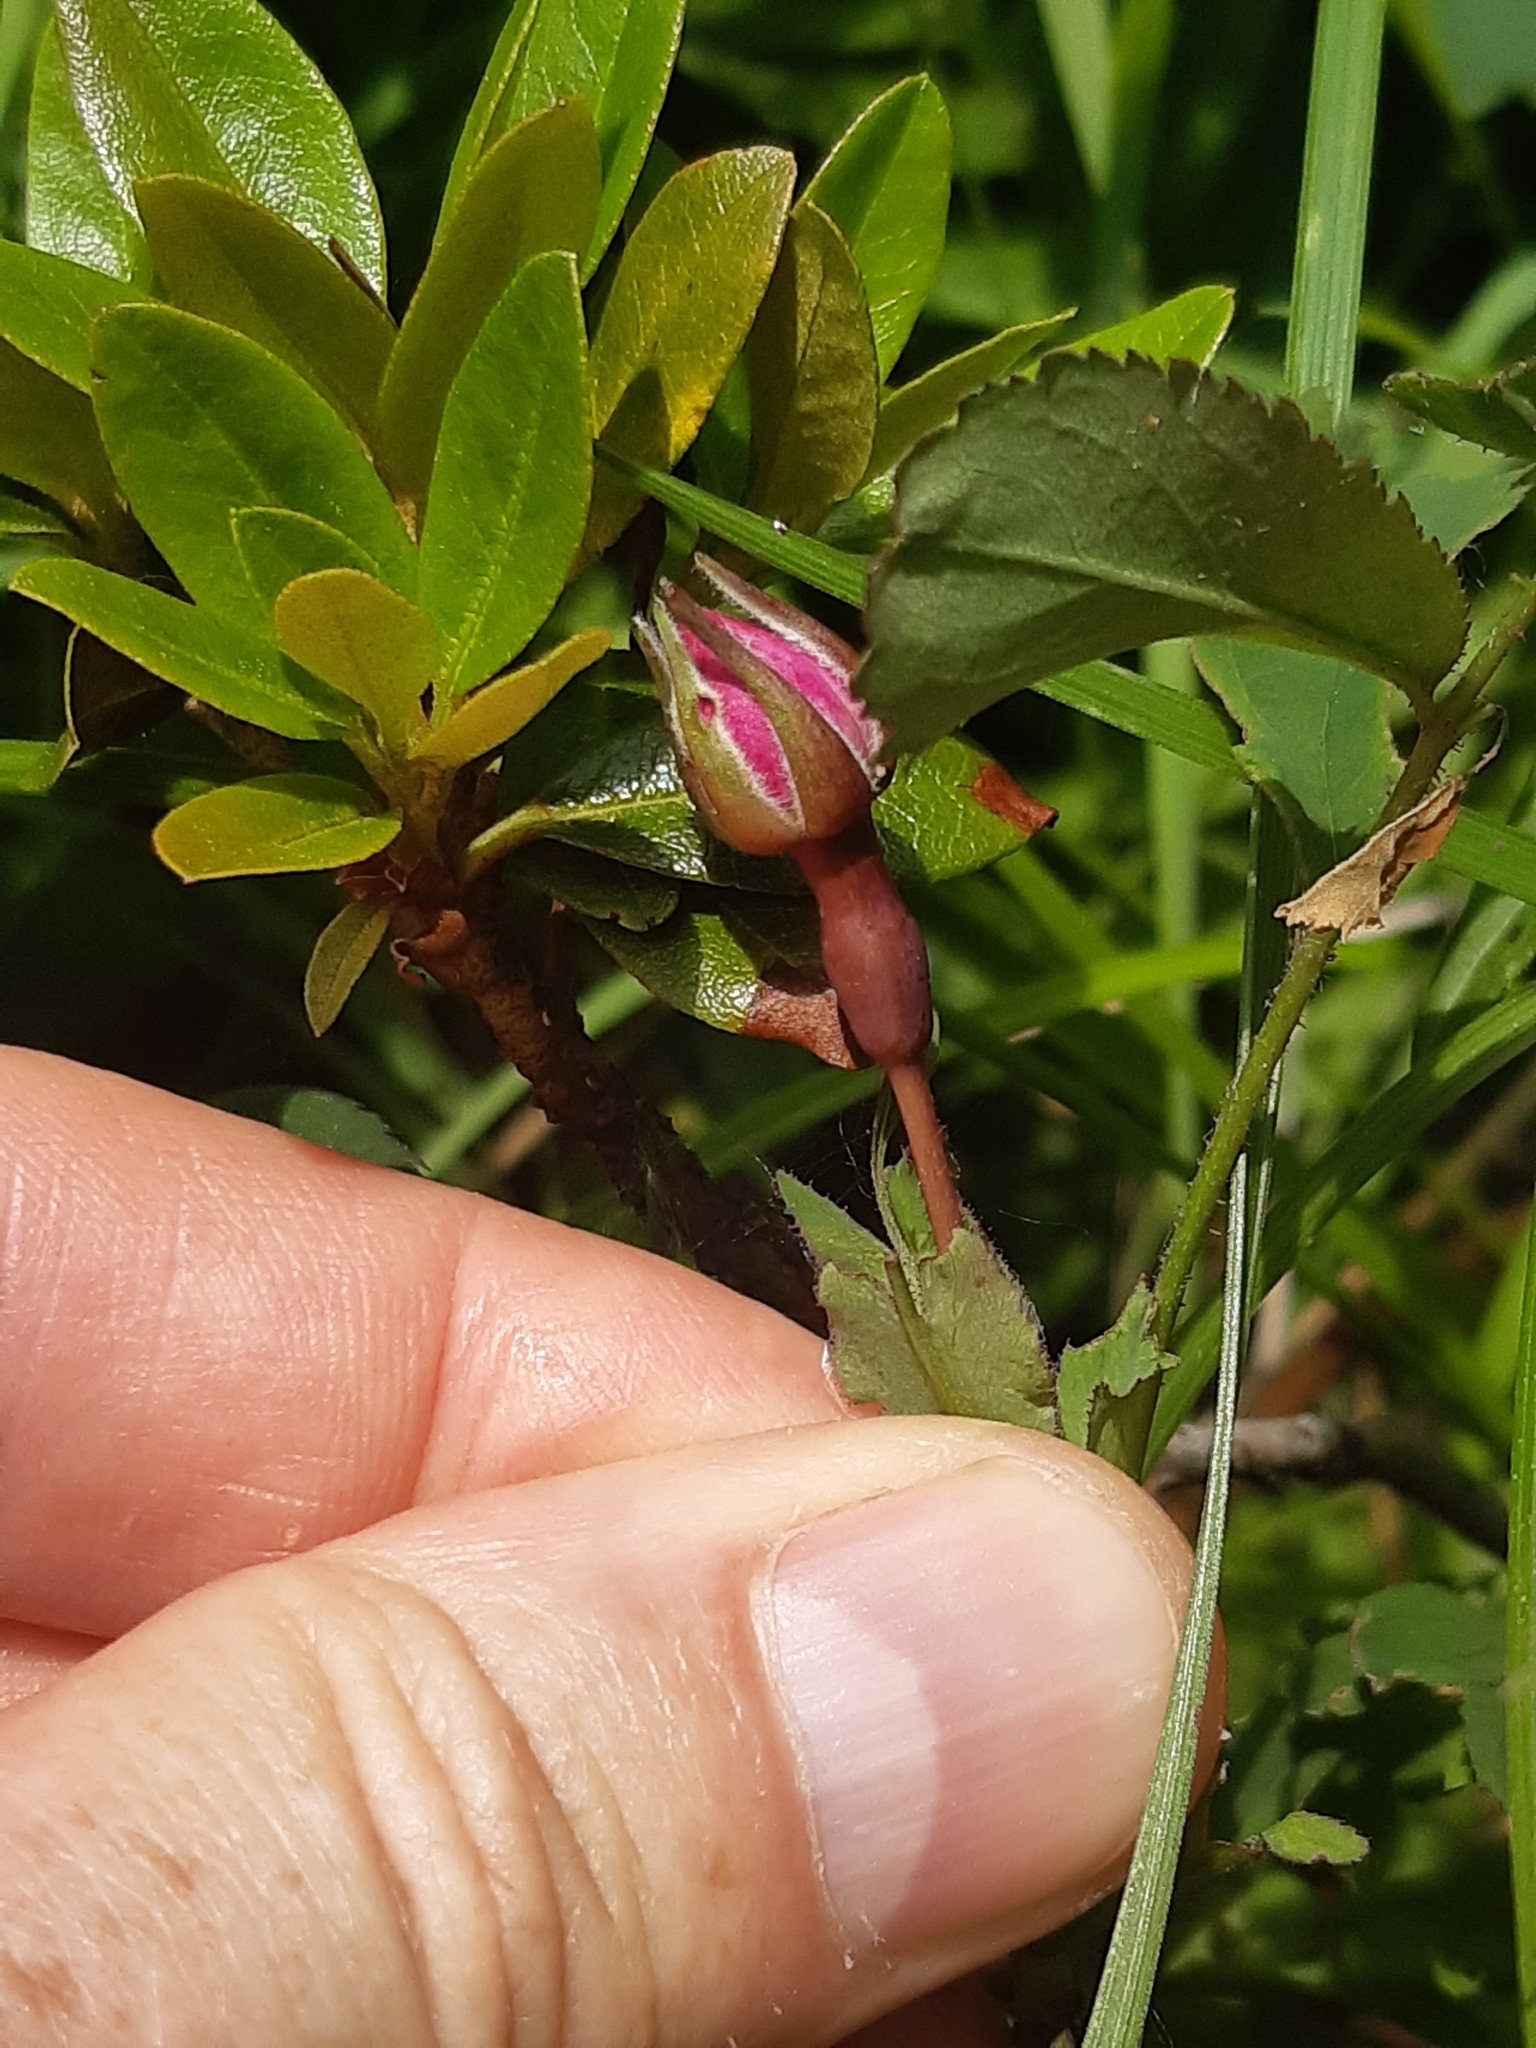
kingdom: Plantae
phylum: Tracheophyta
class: Magnoliopsida
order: Rosales
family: Rosaceae
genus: Rosa
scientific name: Rosa pendulina
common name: Alpine rose
